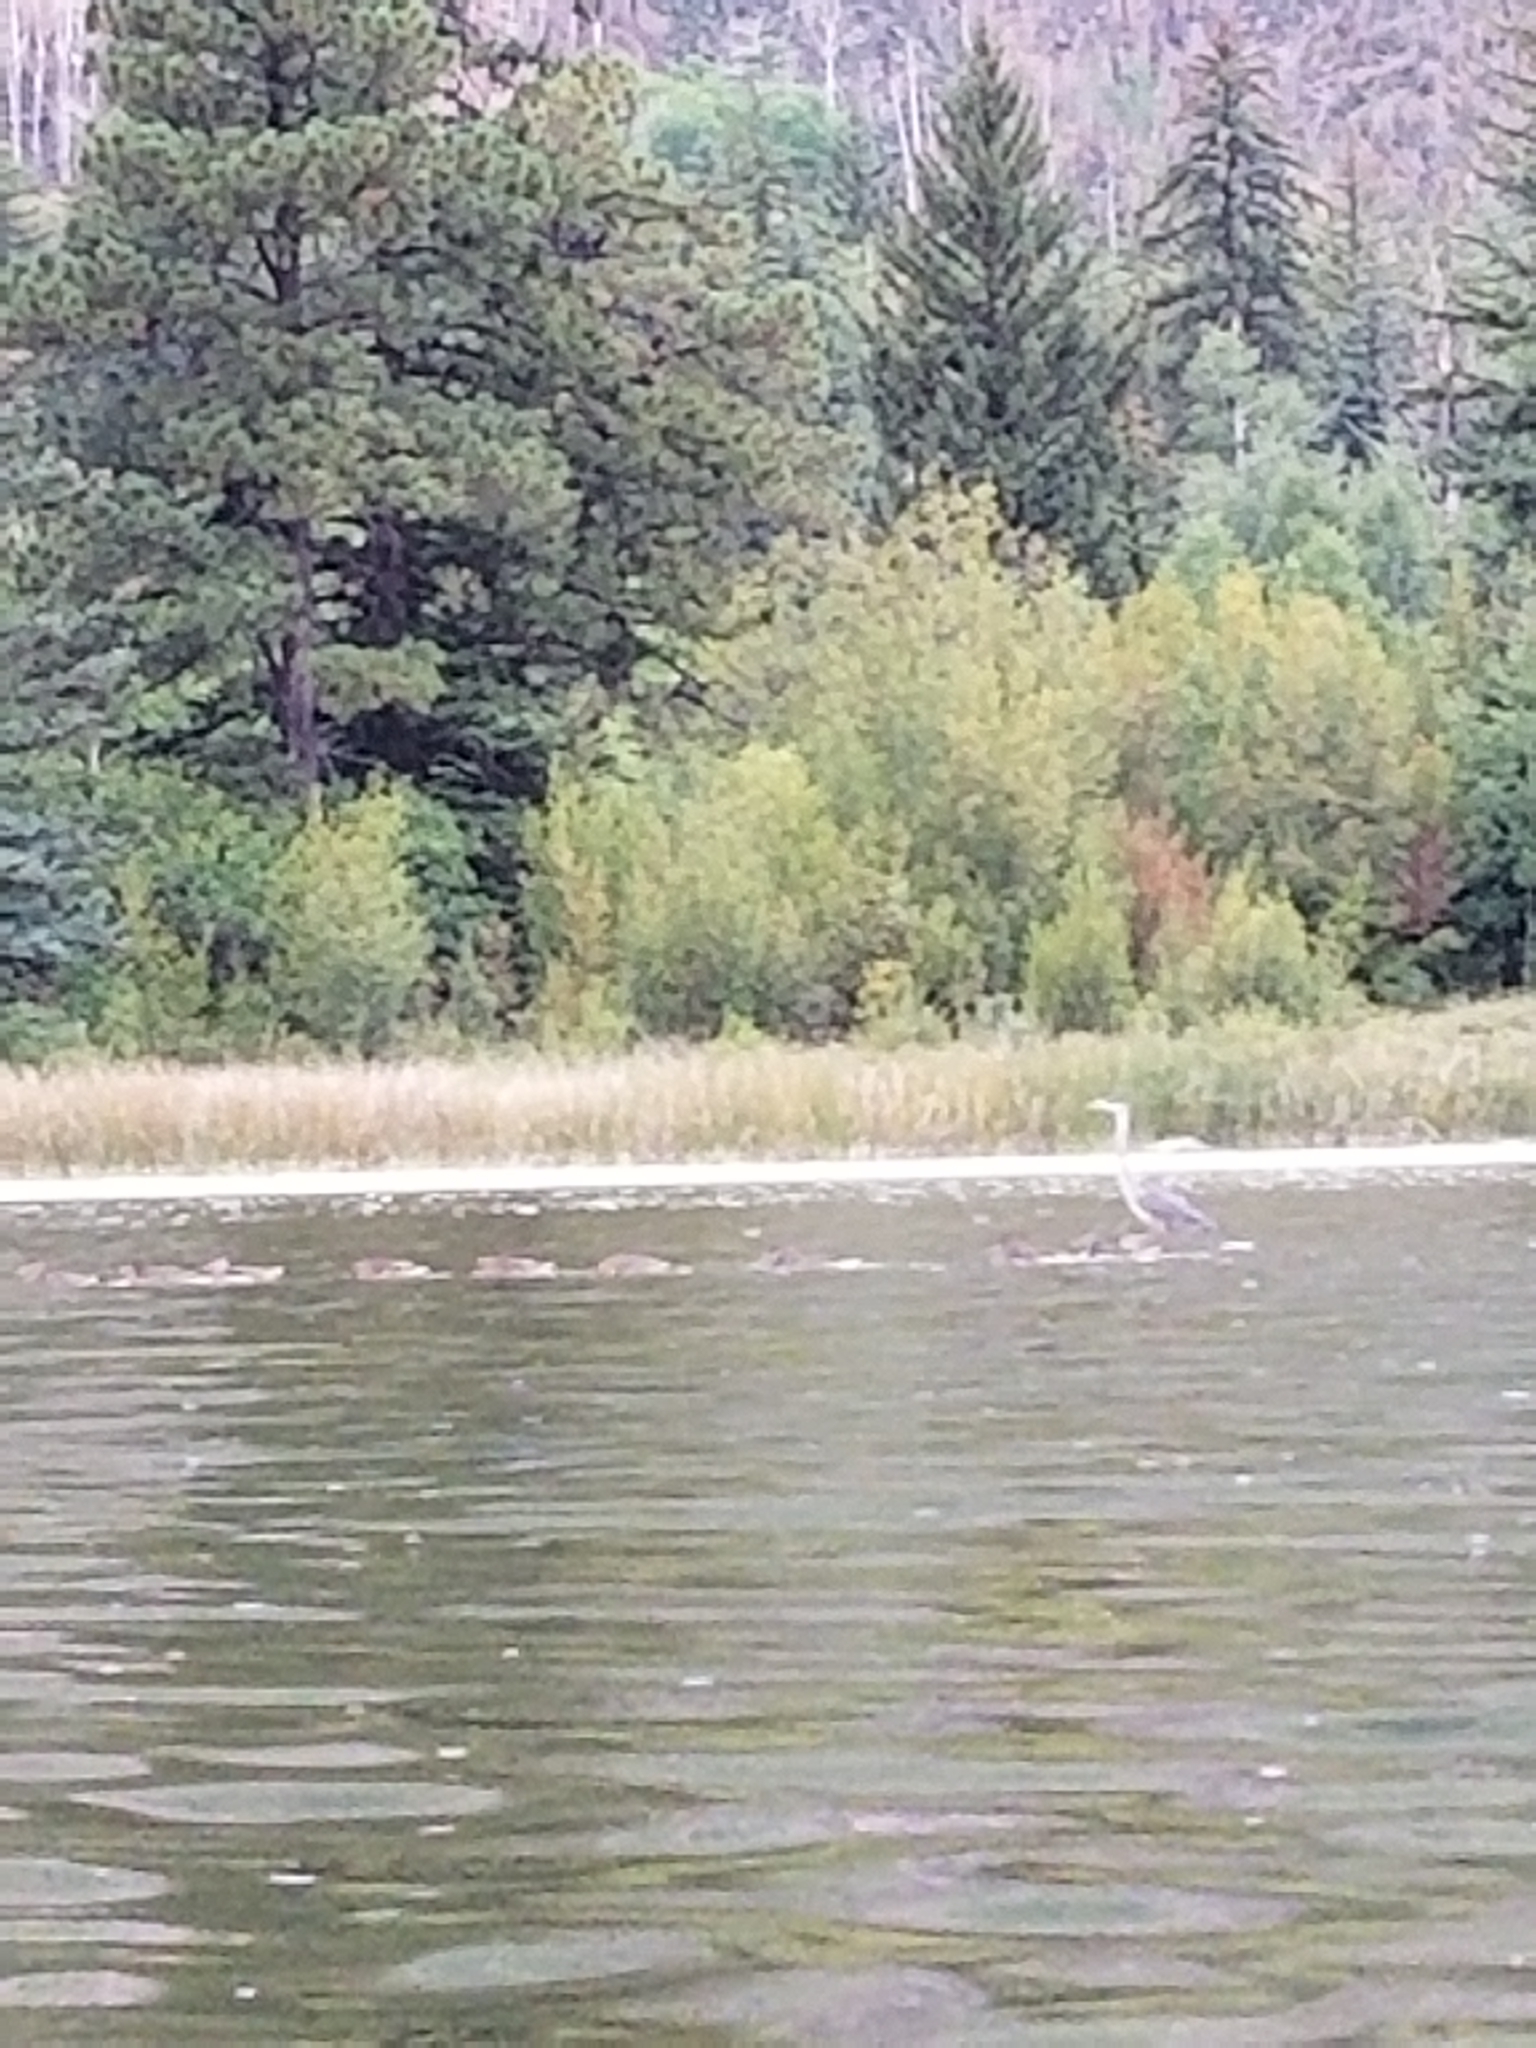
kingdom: Animalia
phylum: Chordata
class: Aves
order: Pelecaniformes
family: Ardeidae
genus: Ardea
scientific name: Ardea herodias
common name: Great blue heron
